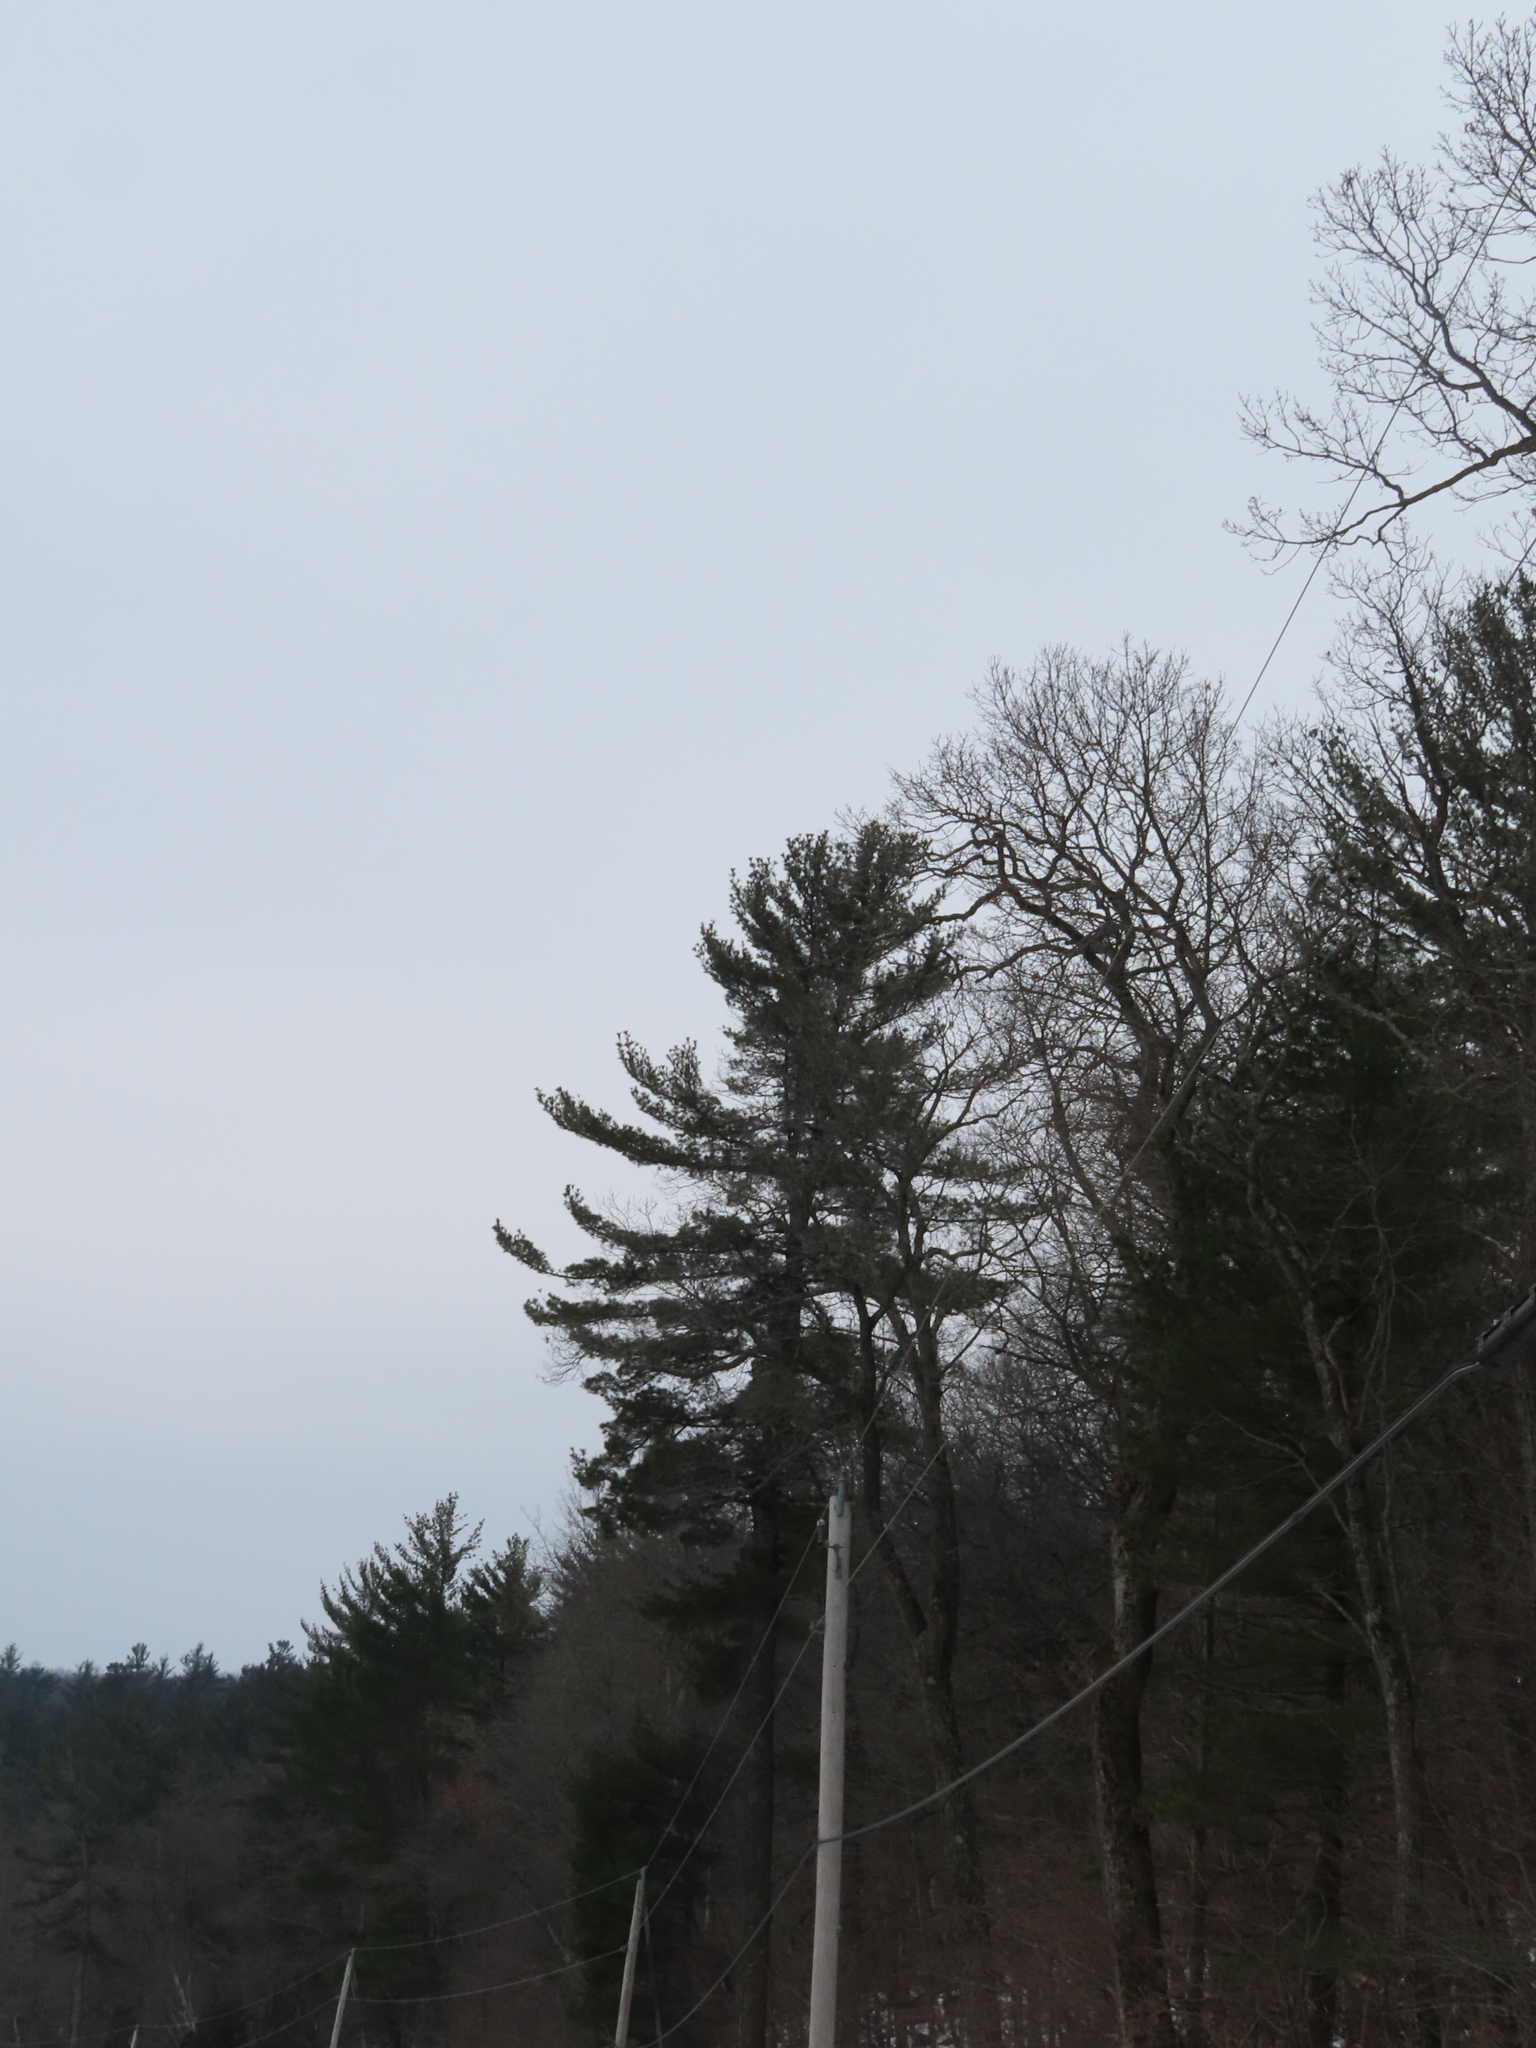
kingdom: Plantae
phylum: Tracheophyta
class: Pinopsida
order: Pinales
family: Pinaceae
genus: Pinus
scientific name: Pinus strobus
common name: Weymouth pine
